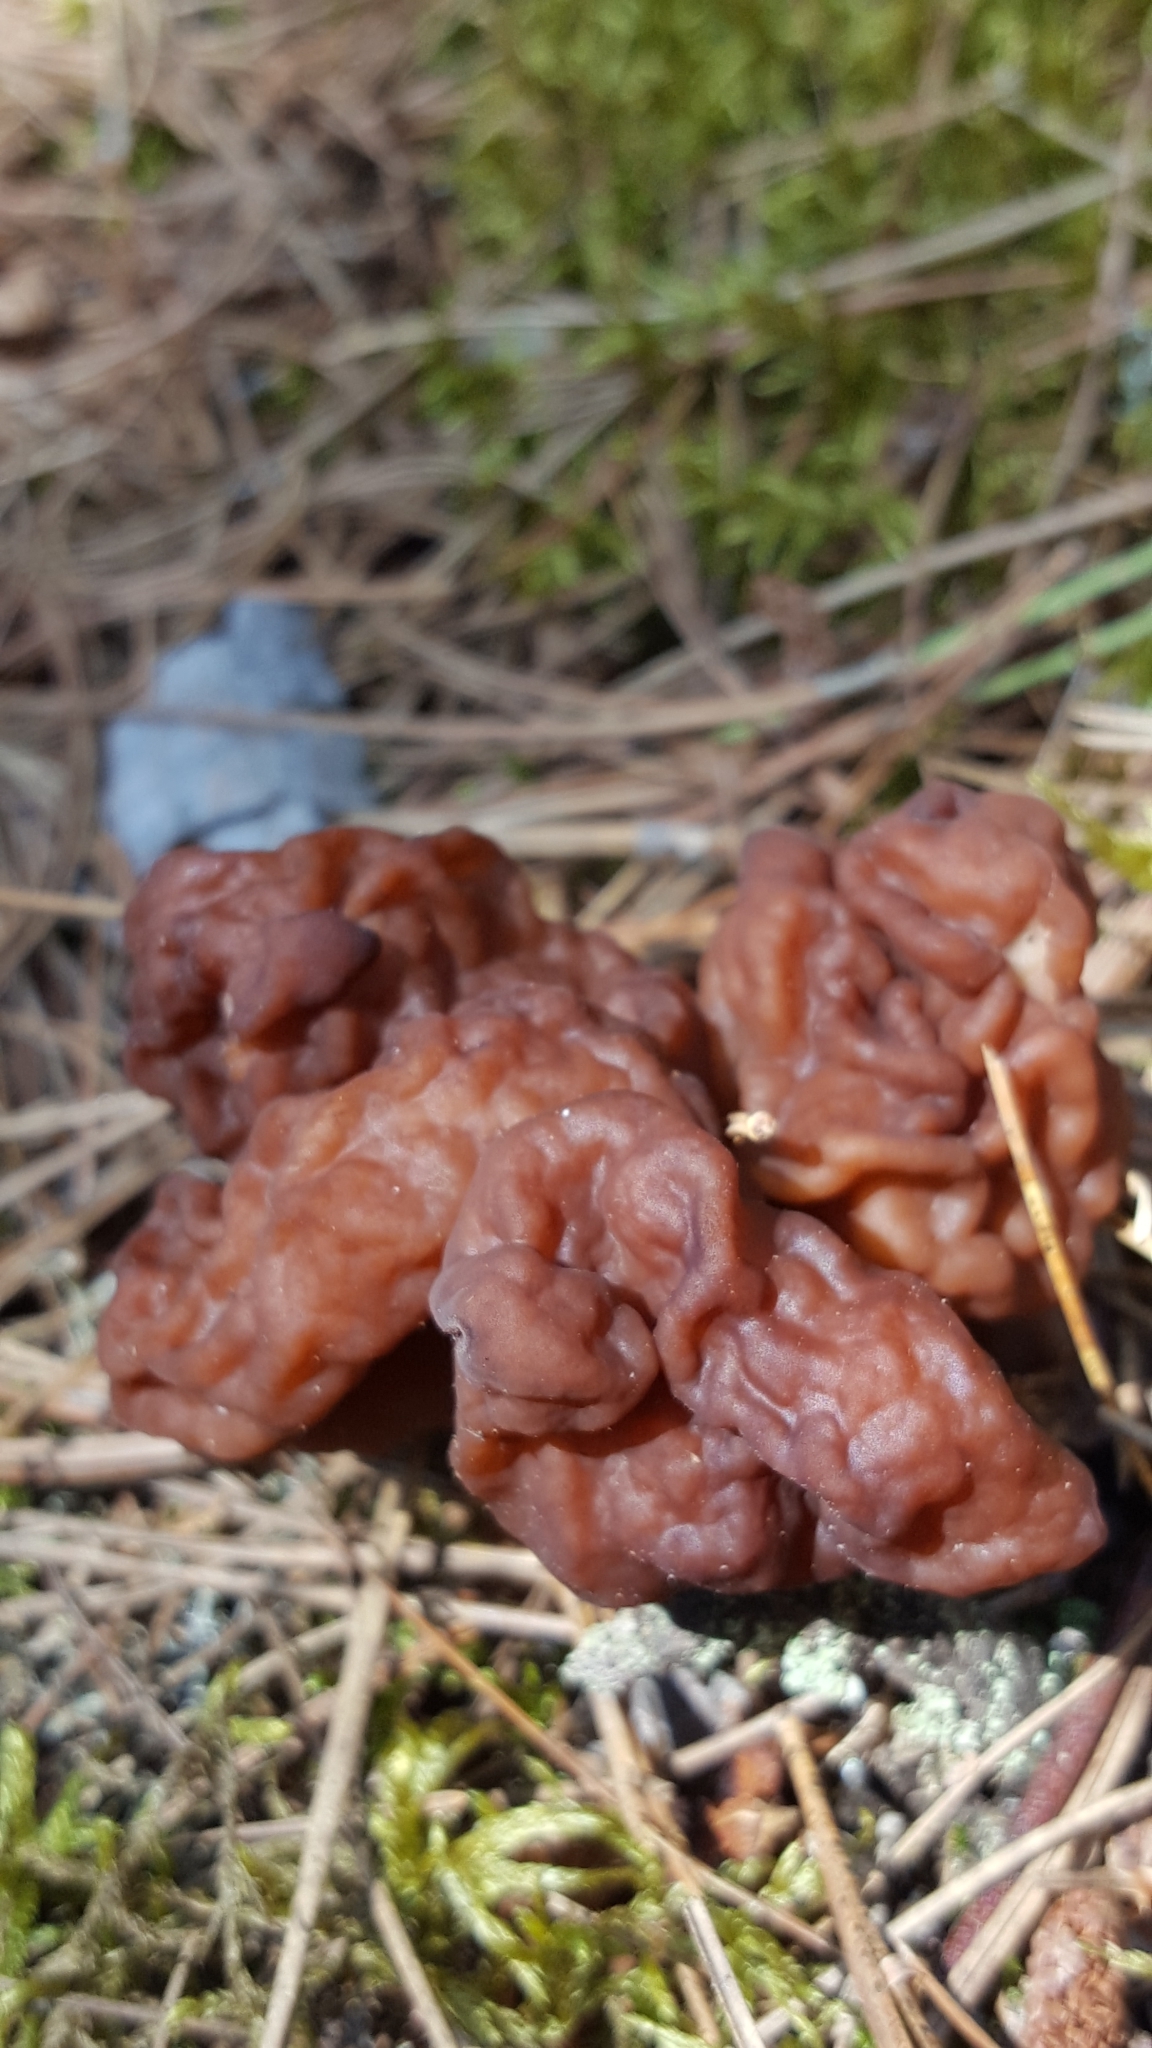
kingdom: Fungi
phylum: Ascomycota
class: Pezizomycetes
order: Pezizales
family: Discinaceae
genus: Gyromitra
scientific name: Gyromitra esculenta
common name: False morel
